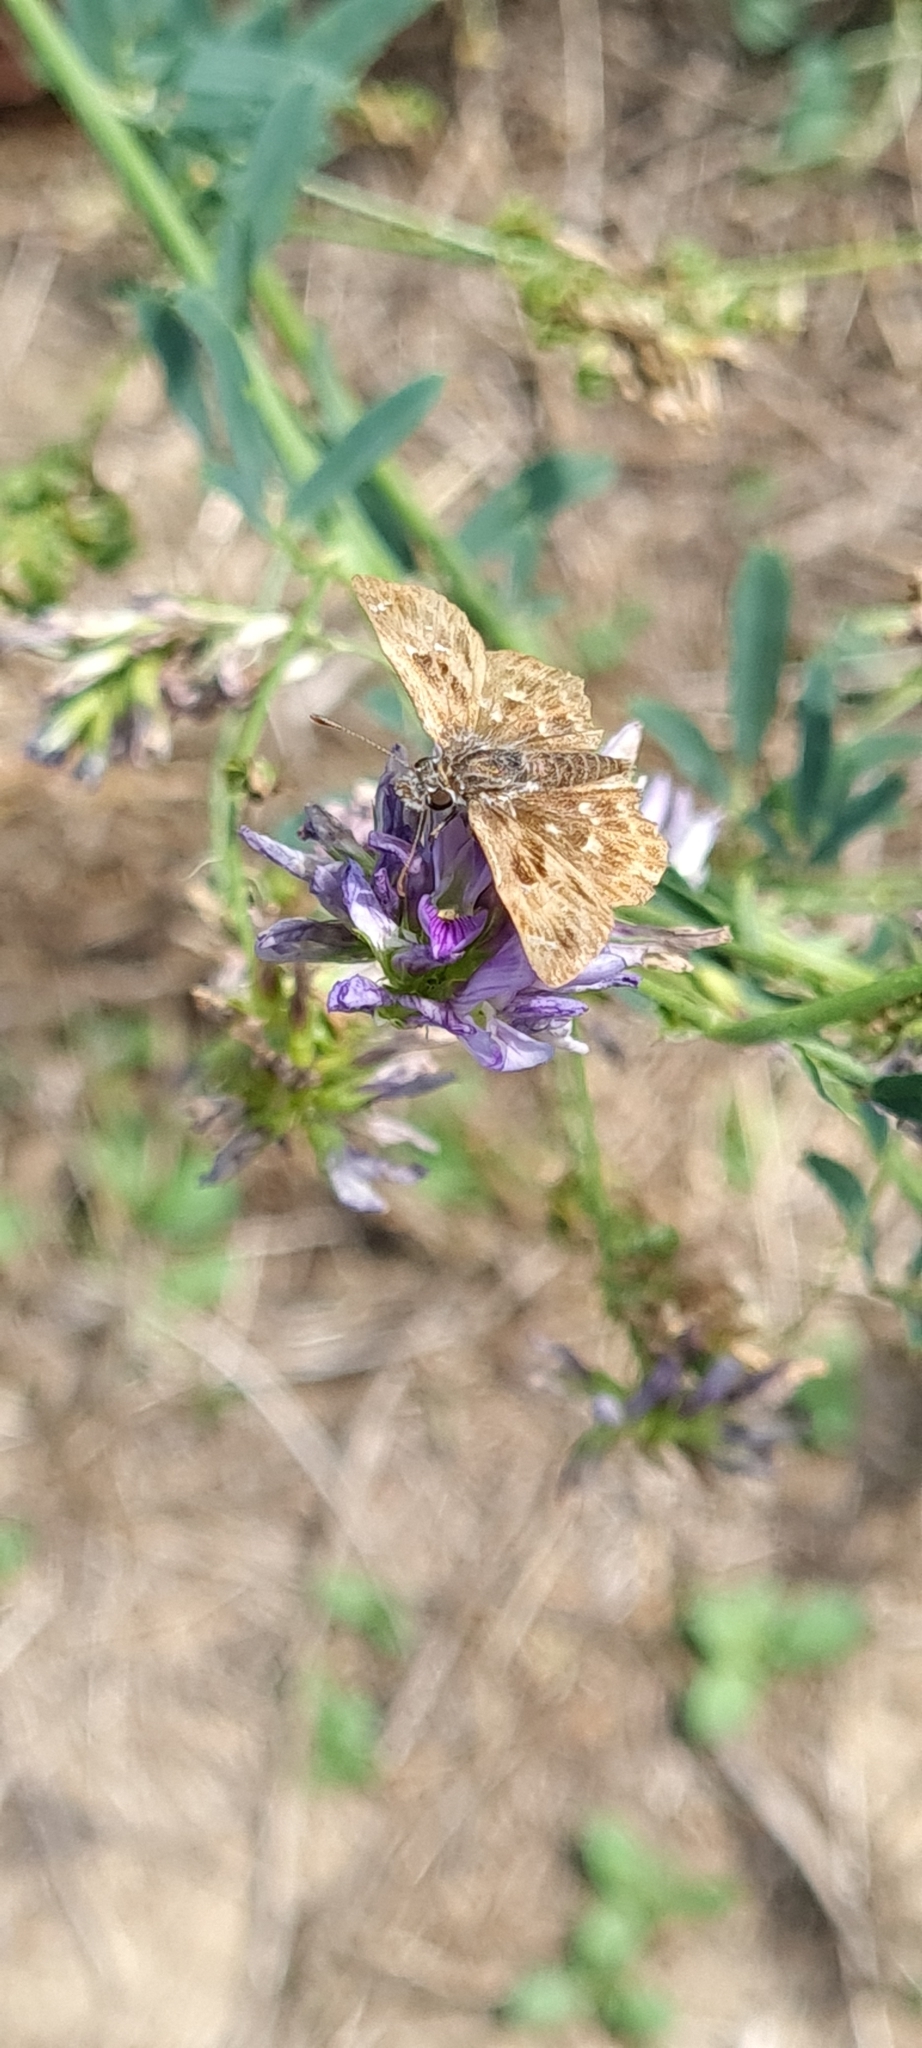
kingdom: Animalia
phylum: Arthropoda
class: Insecta
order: Lepidoptera
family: Hesperiidae
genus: Carcharodus
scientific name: Carcharodus alceae
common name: Mallow skipper
